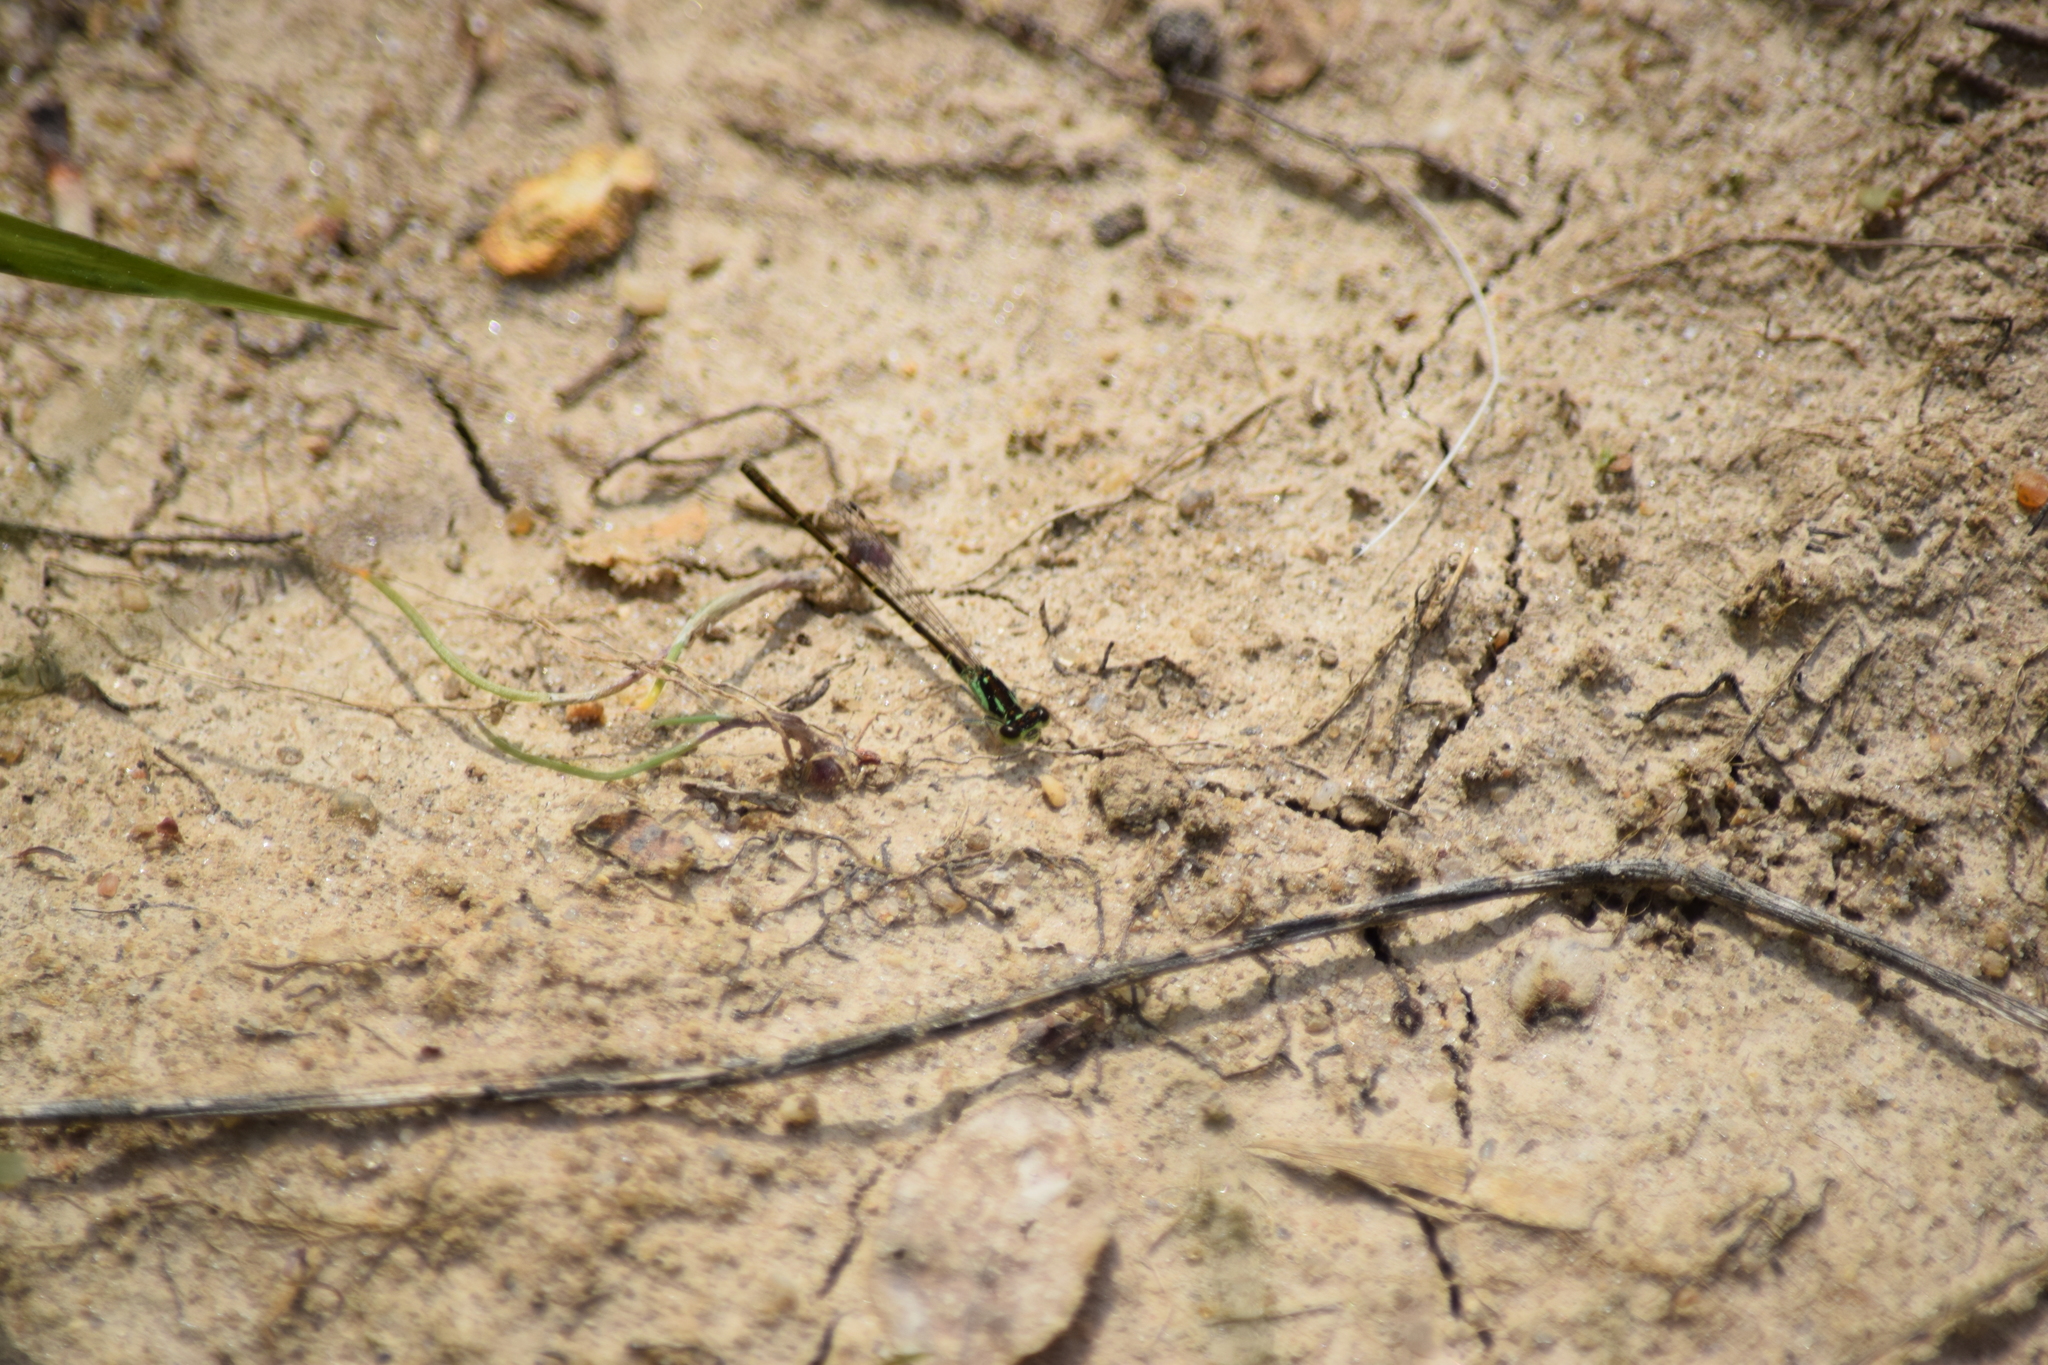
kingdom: Animalia
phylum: Arthropoda
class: Insecta
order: Odonata
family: Coenagrionidae
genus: Ischnura
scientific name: Ischnura posita
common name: Fragile forktail
